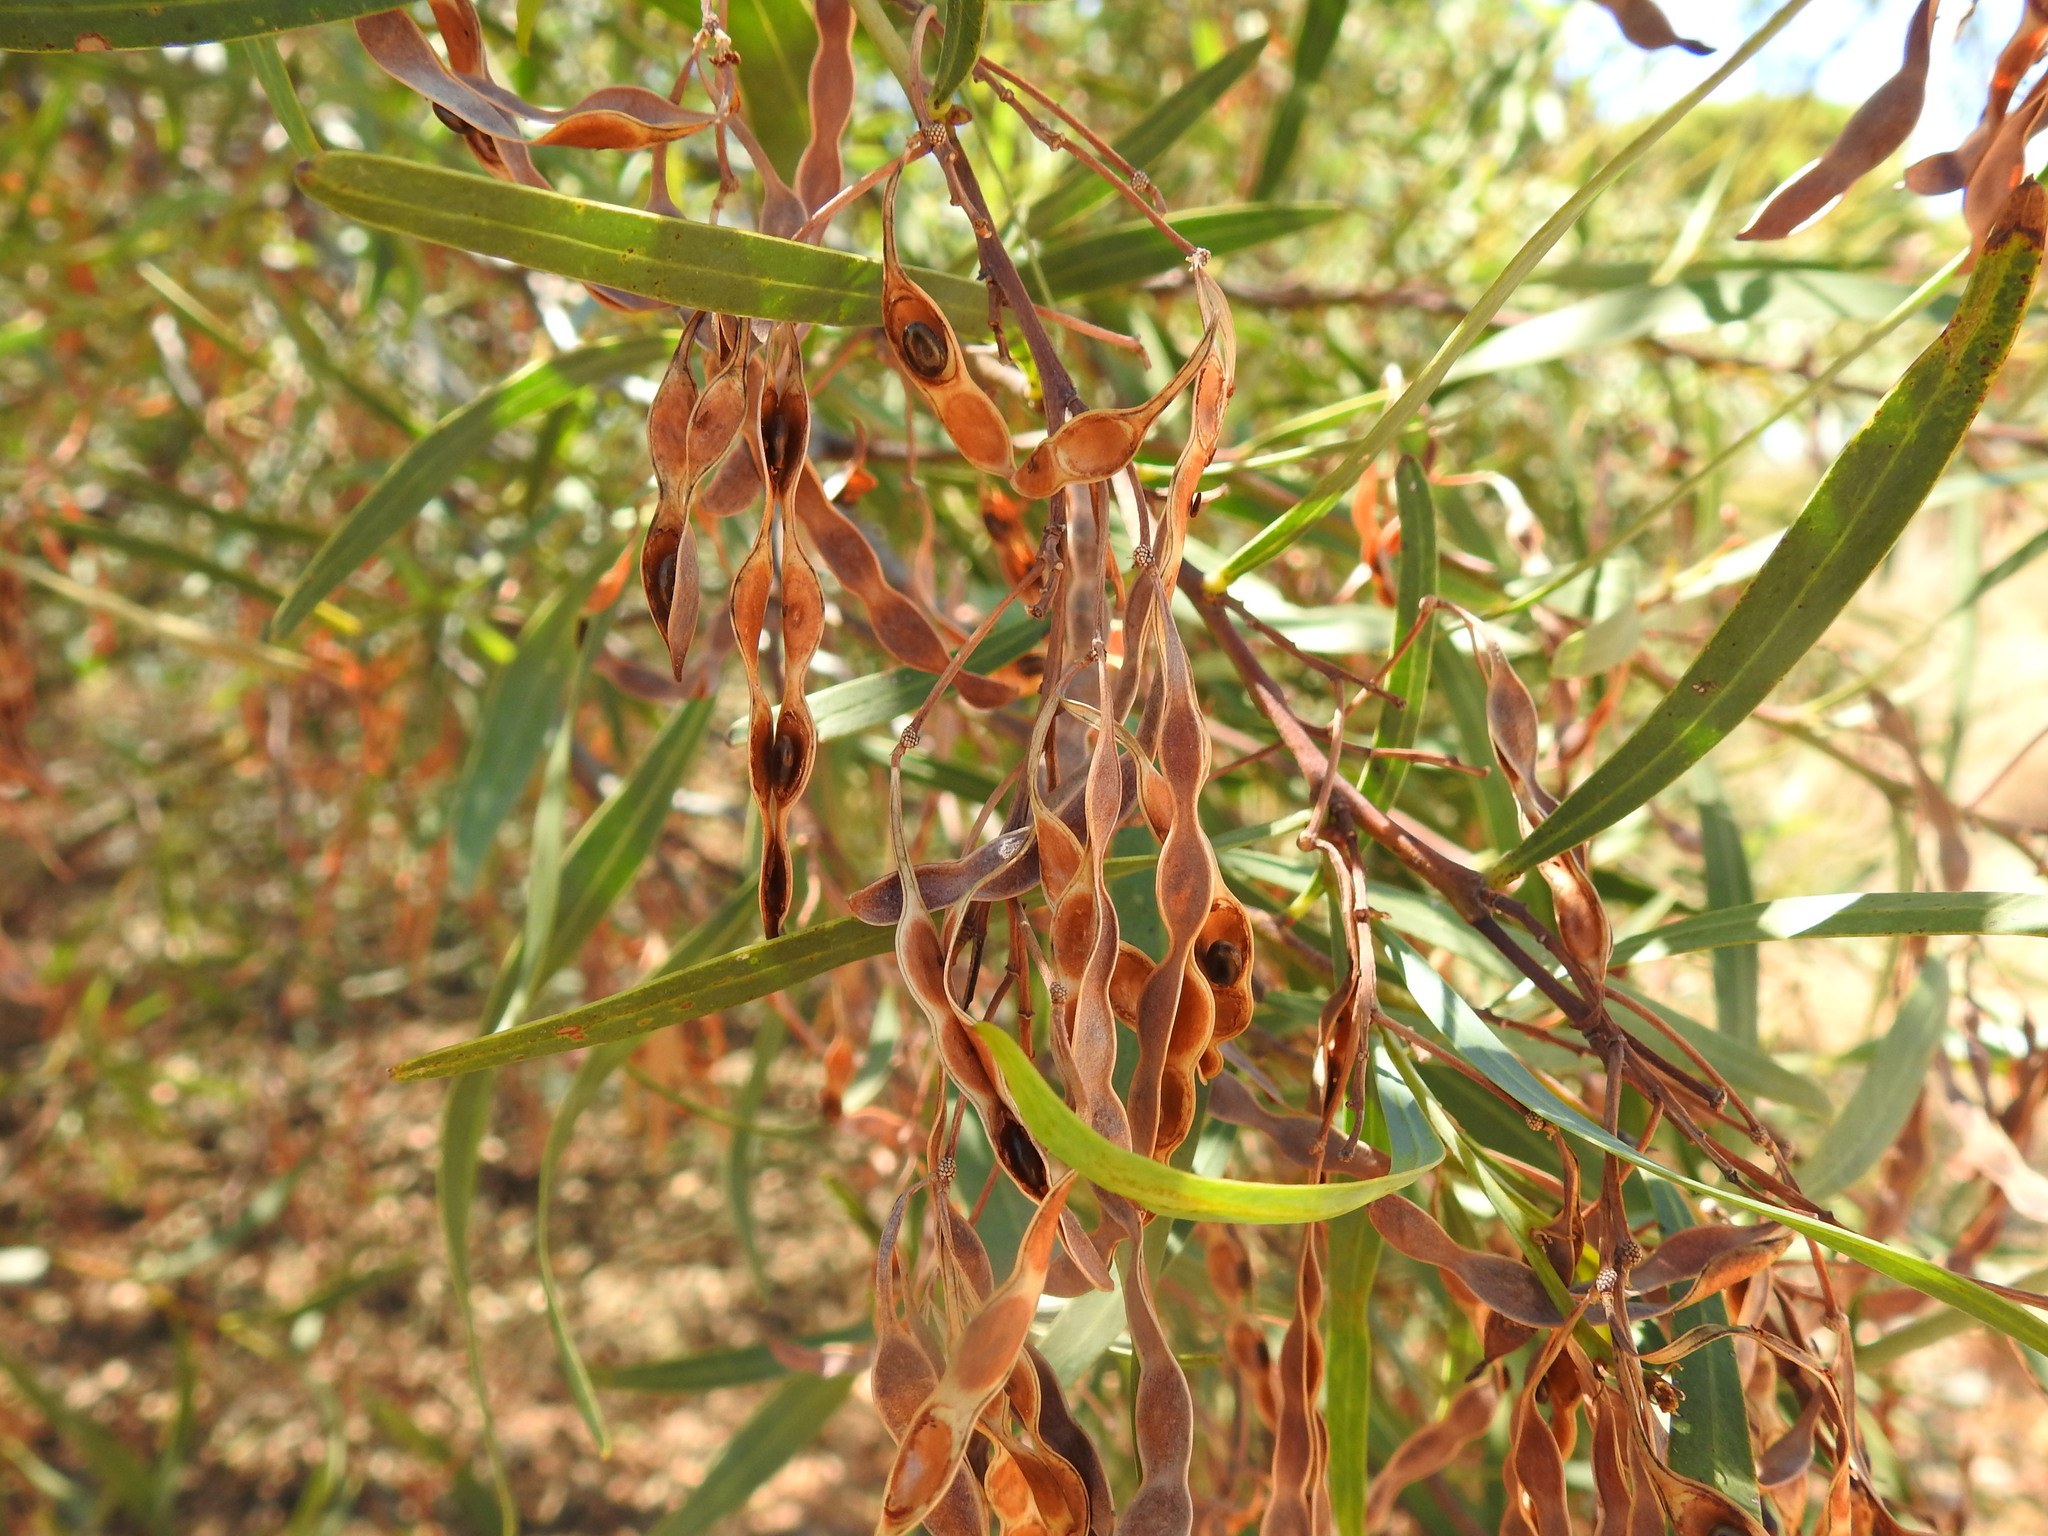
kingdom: Plantae
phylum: Tracheophyta
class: Magnoliopsida
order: Fabales
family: Fabaceae
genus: Acacia
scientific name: Acacia saligna
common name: Orange wattle
